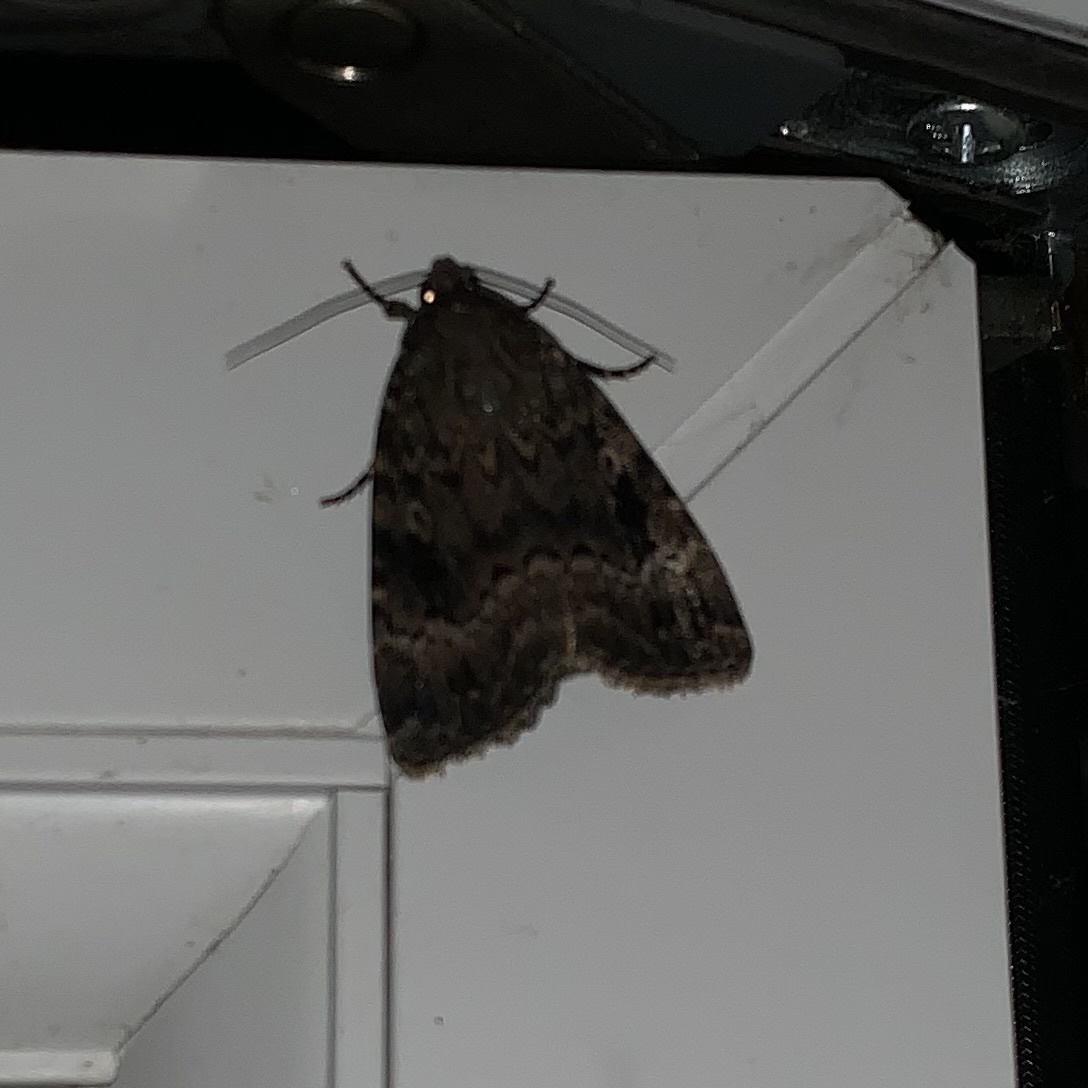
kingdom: Animalia
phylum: Arthropoda
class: Insecta
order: Lepidoptera
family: Noctuidae
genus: Amphipyra
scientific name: Amphipyra berbera
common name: Svensson's copper underwing
